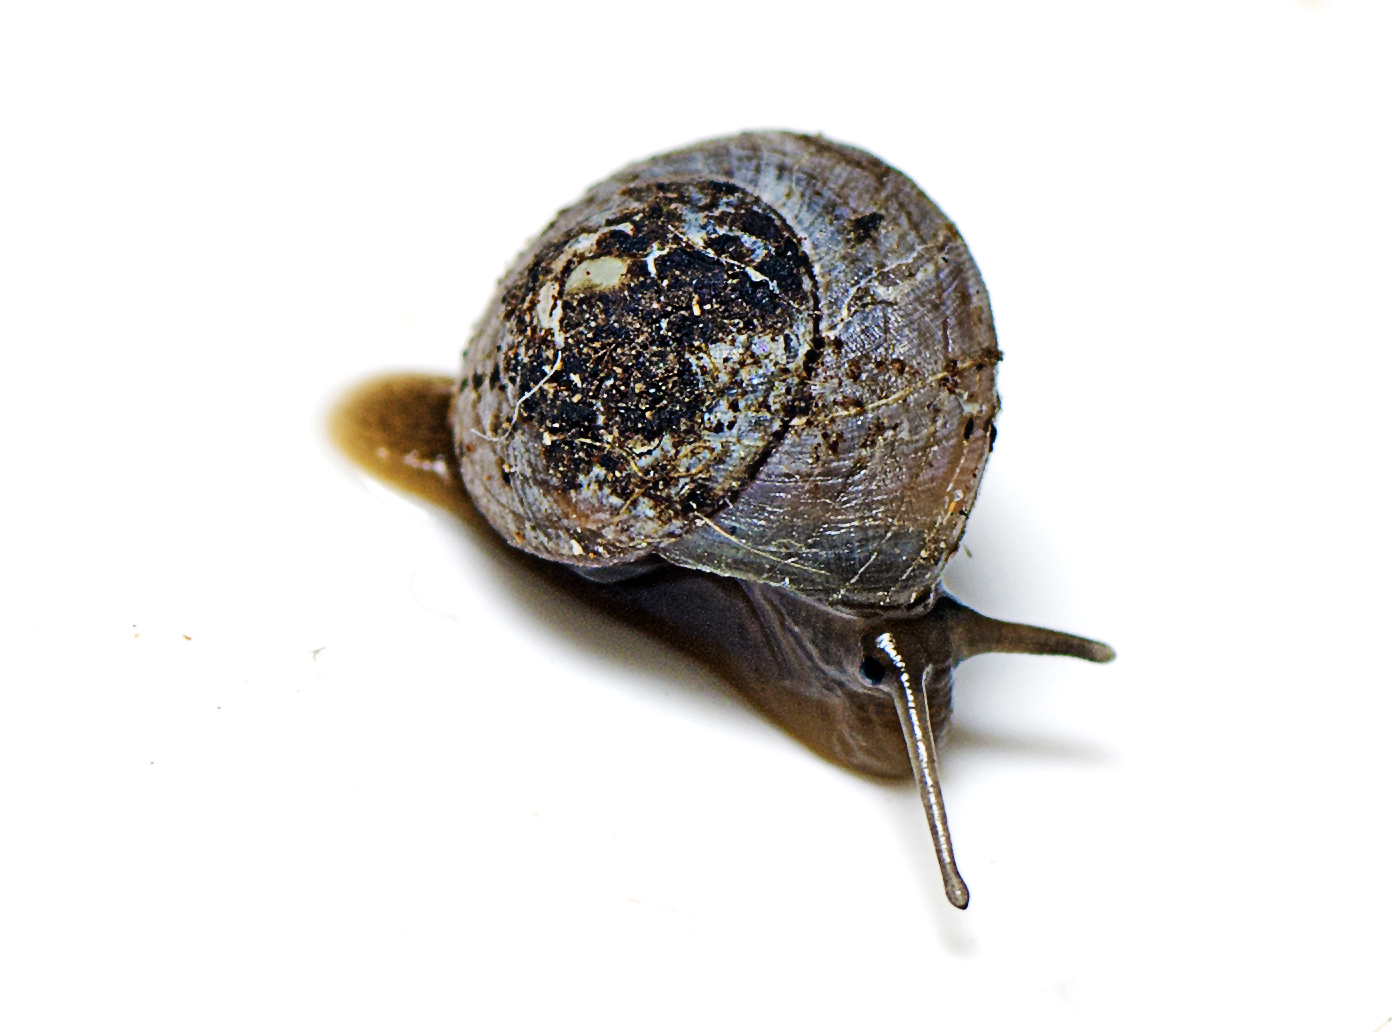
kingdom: Animalia
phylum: Mollusca
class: Gastropoda
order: Cycloneritida
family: Helicinidae
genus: Pleuropoma
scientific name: Pleuropoma talusata
